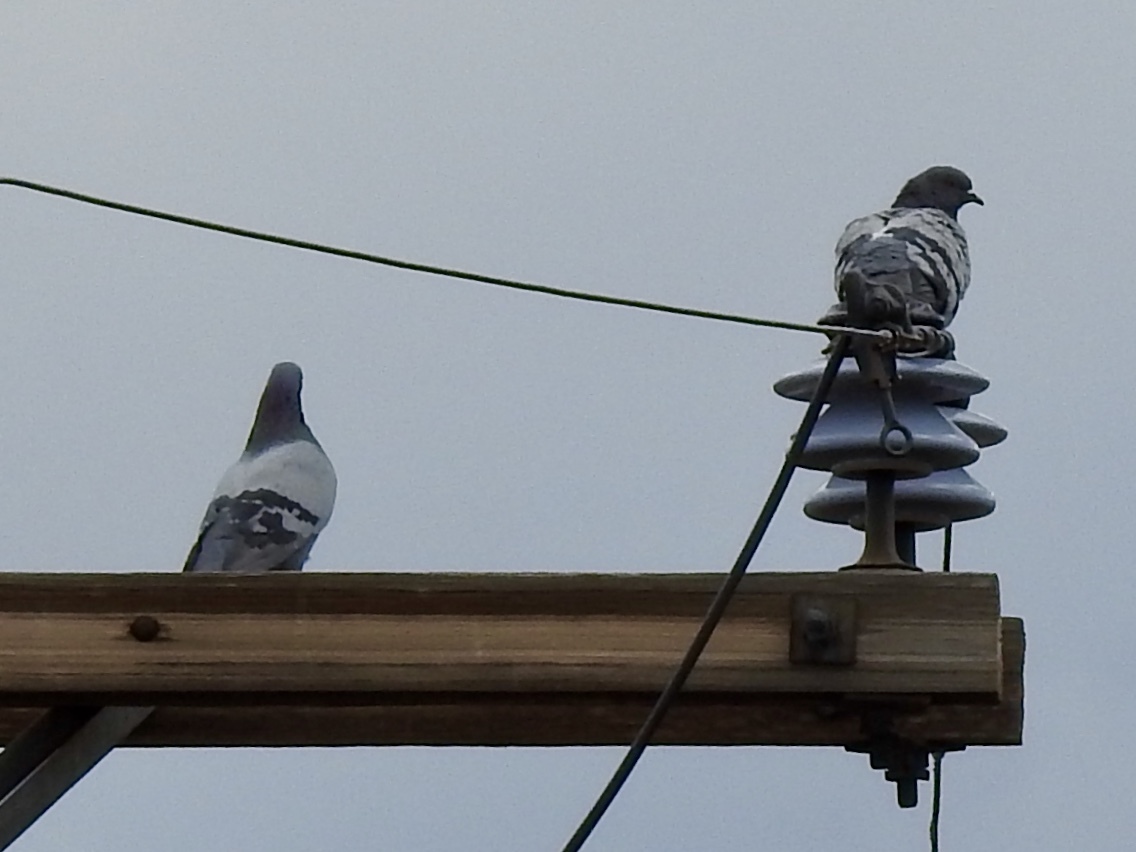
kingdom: Animalia
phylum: Chordata
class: Aves
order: Columbiformes
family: Columbidae
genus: Columba
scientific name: Columba livia
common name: Rock pigeon
